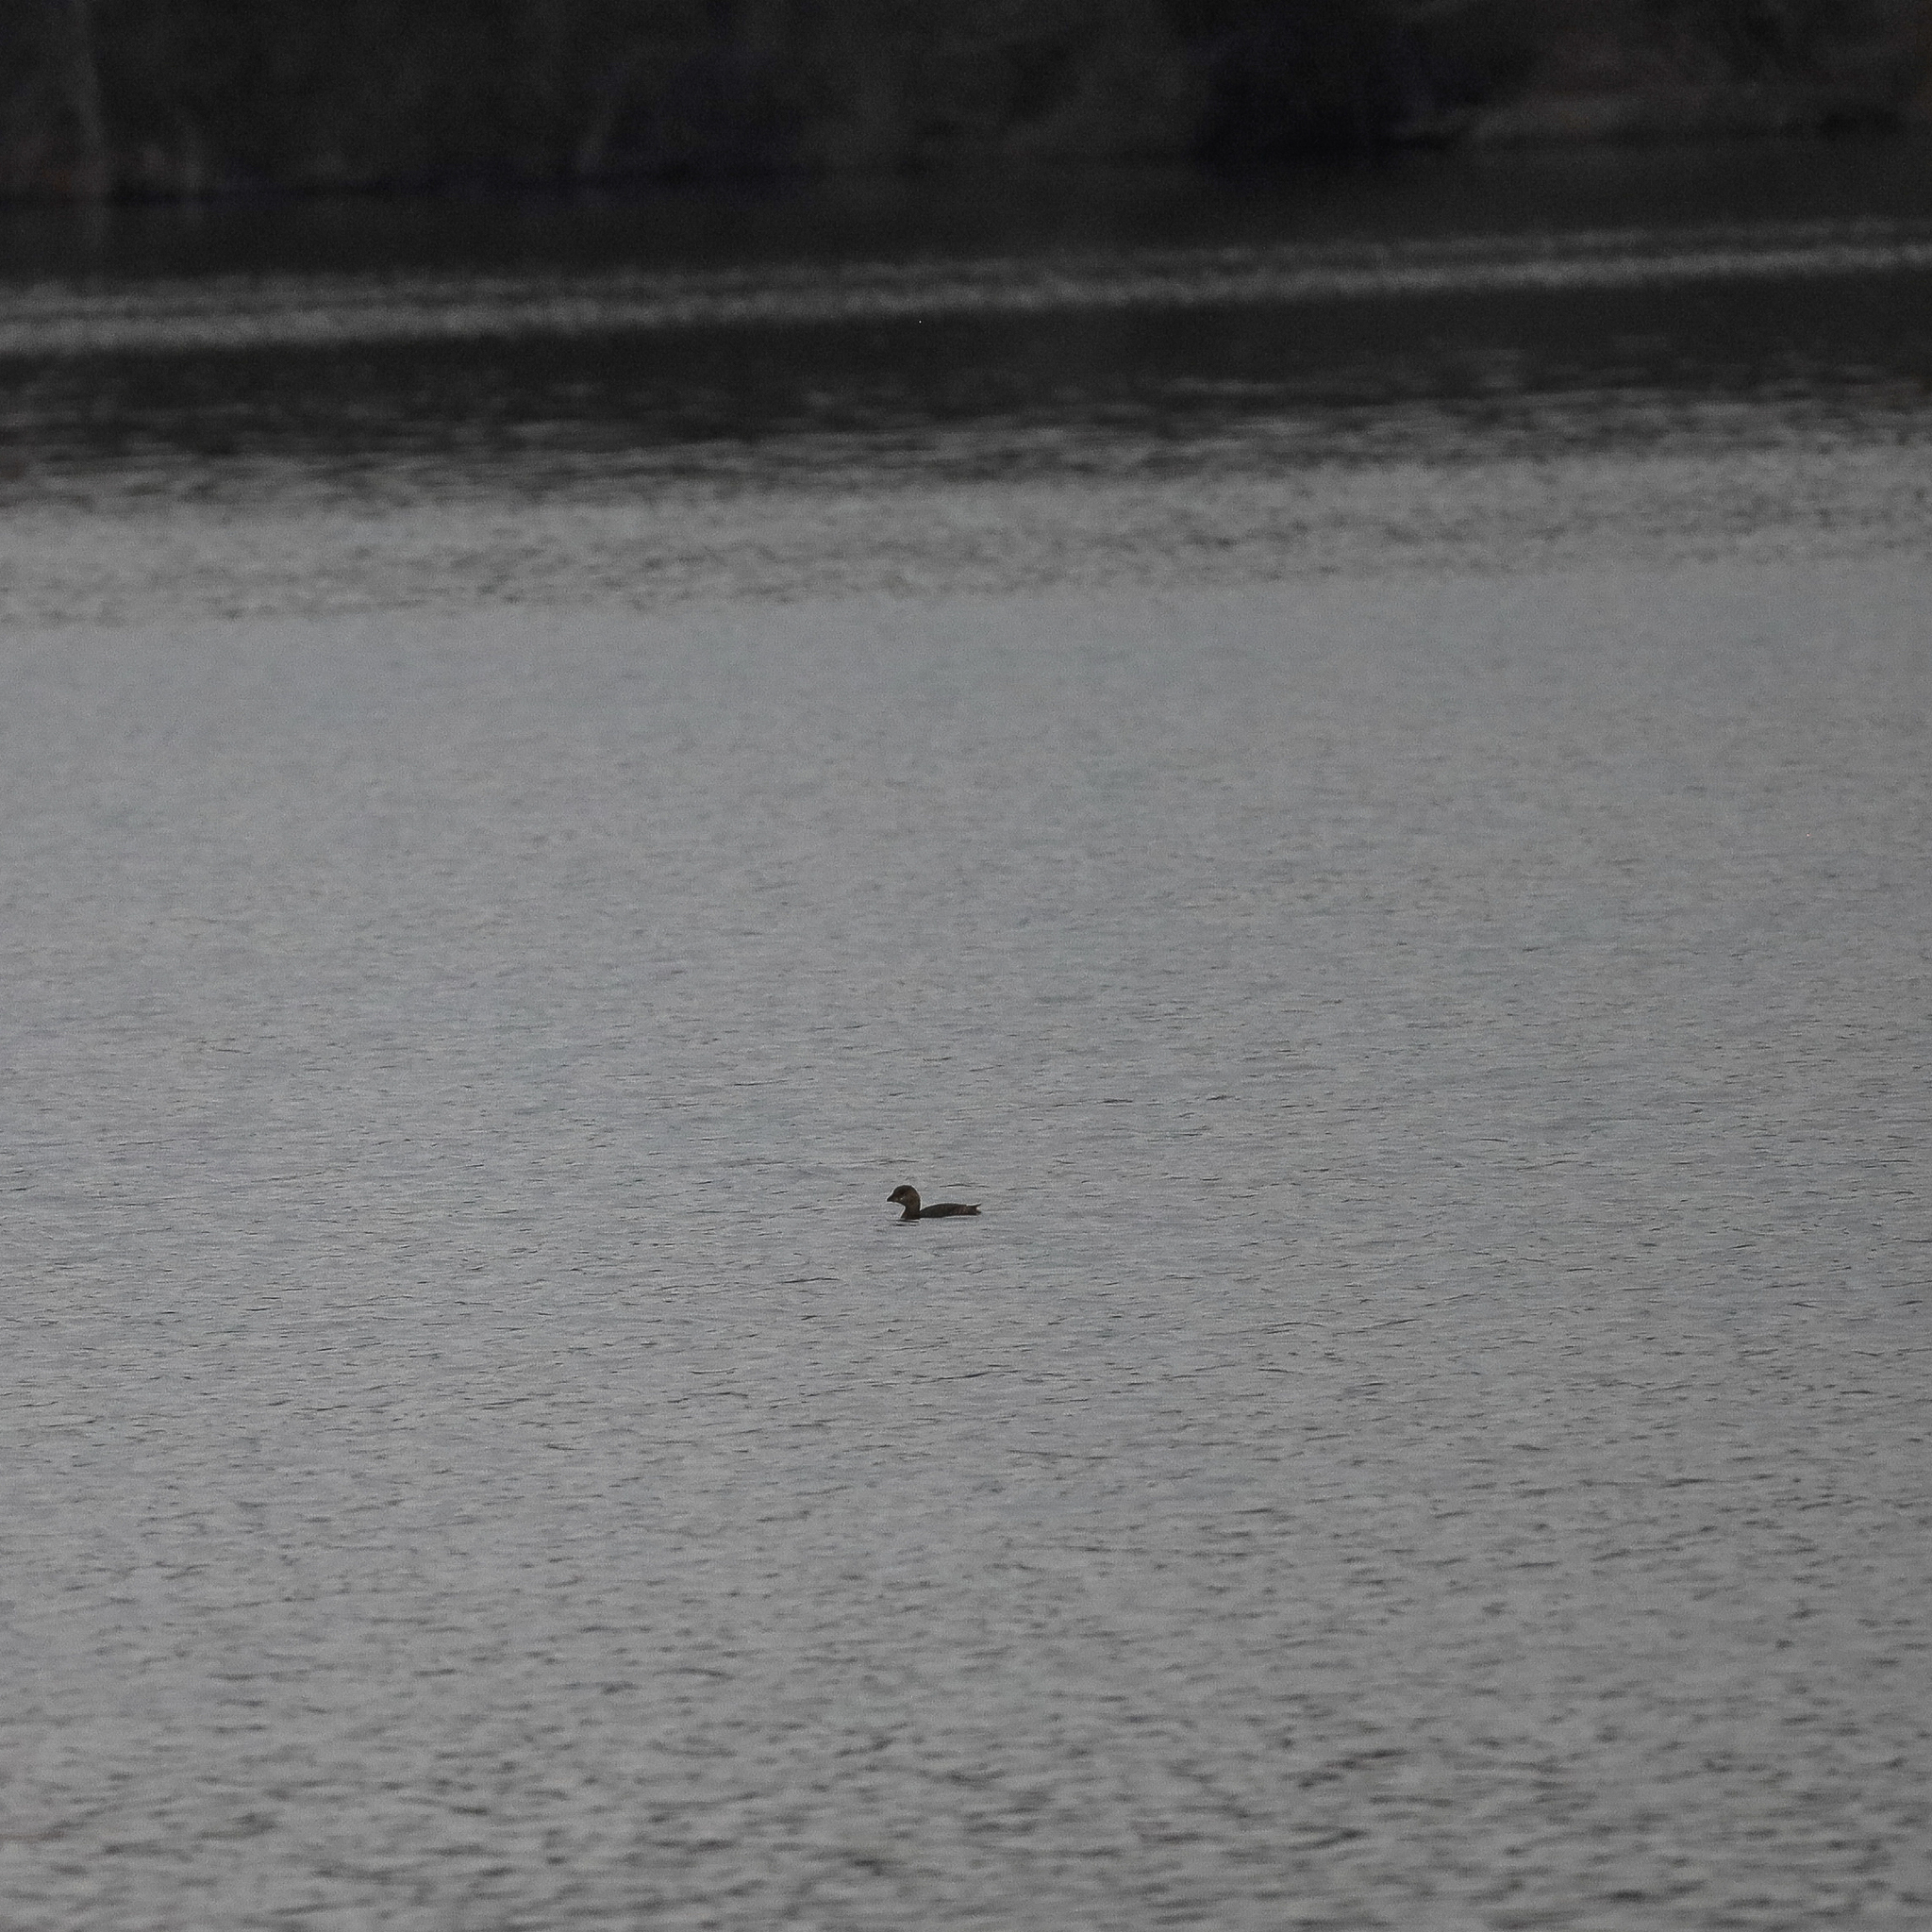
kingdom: Animalia
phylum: Chordata
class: Aves
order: Podicipediformes
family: Podicipedidae
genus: Podilymbus
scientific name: Podilymbus podiceps
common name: Pied-billed grebe
